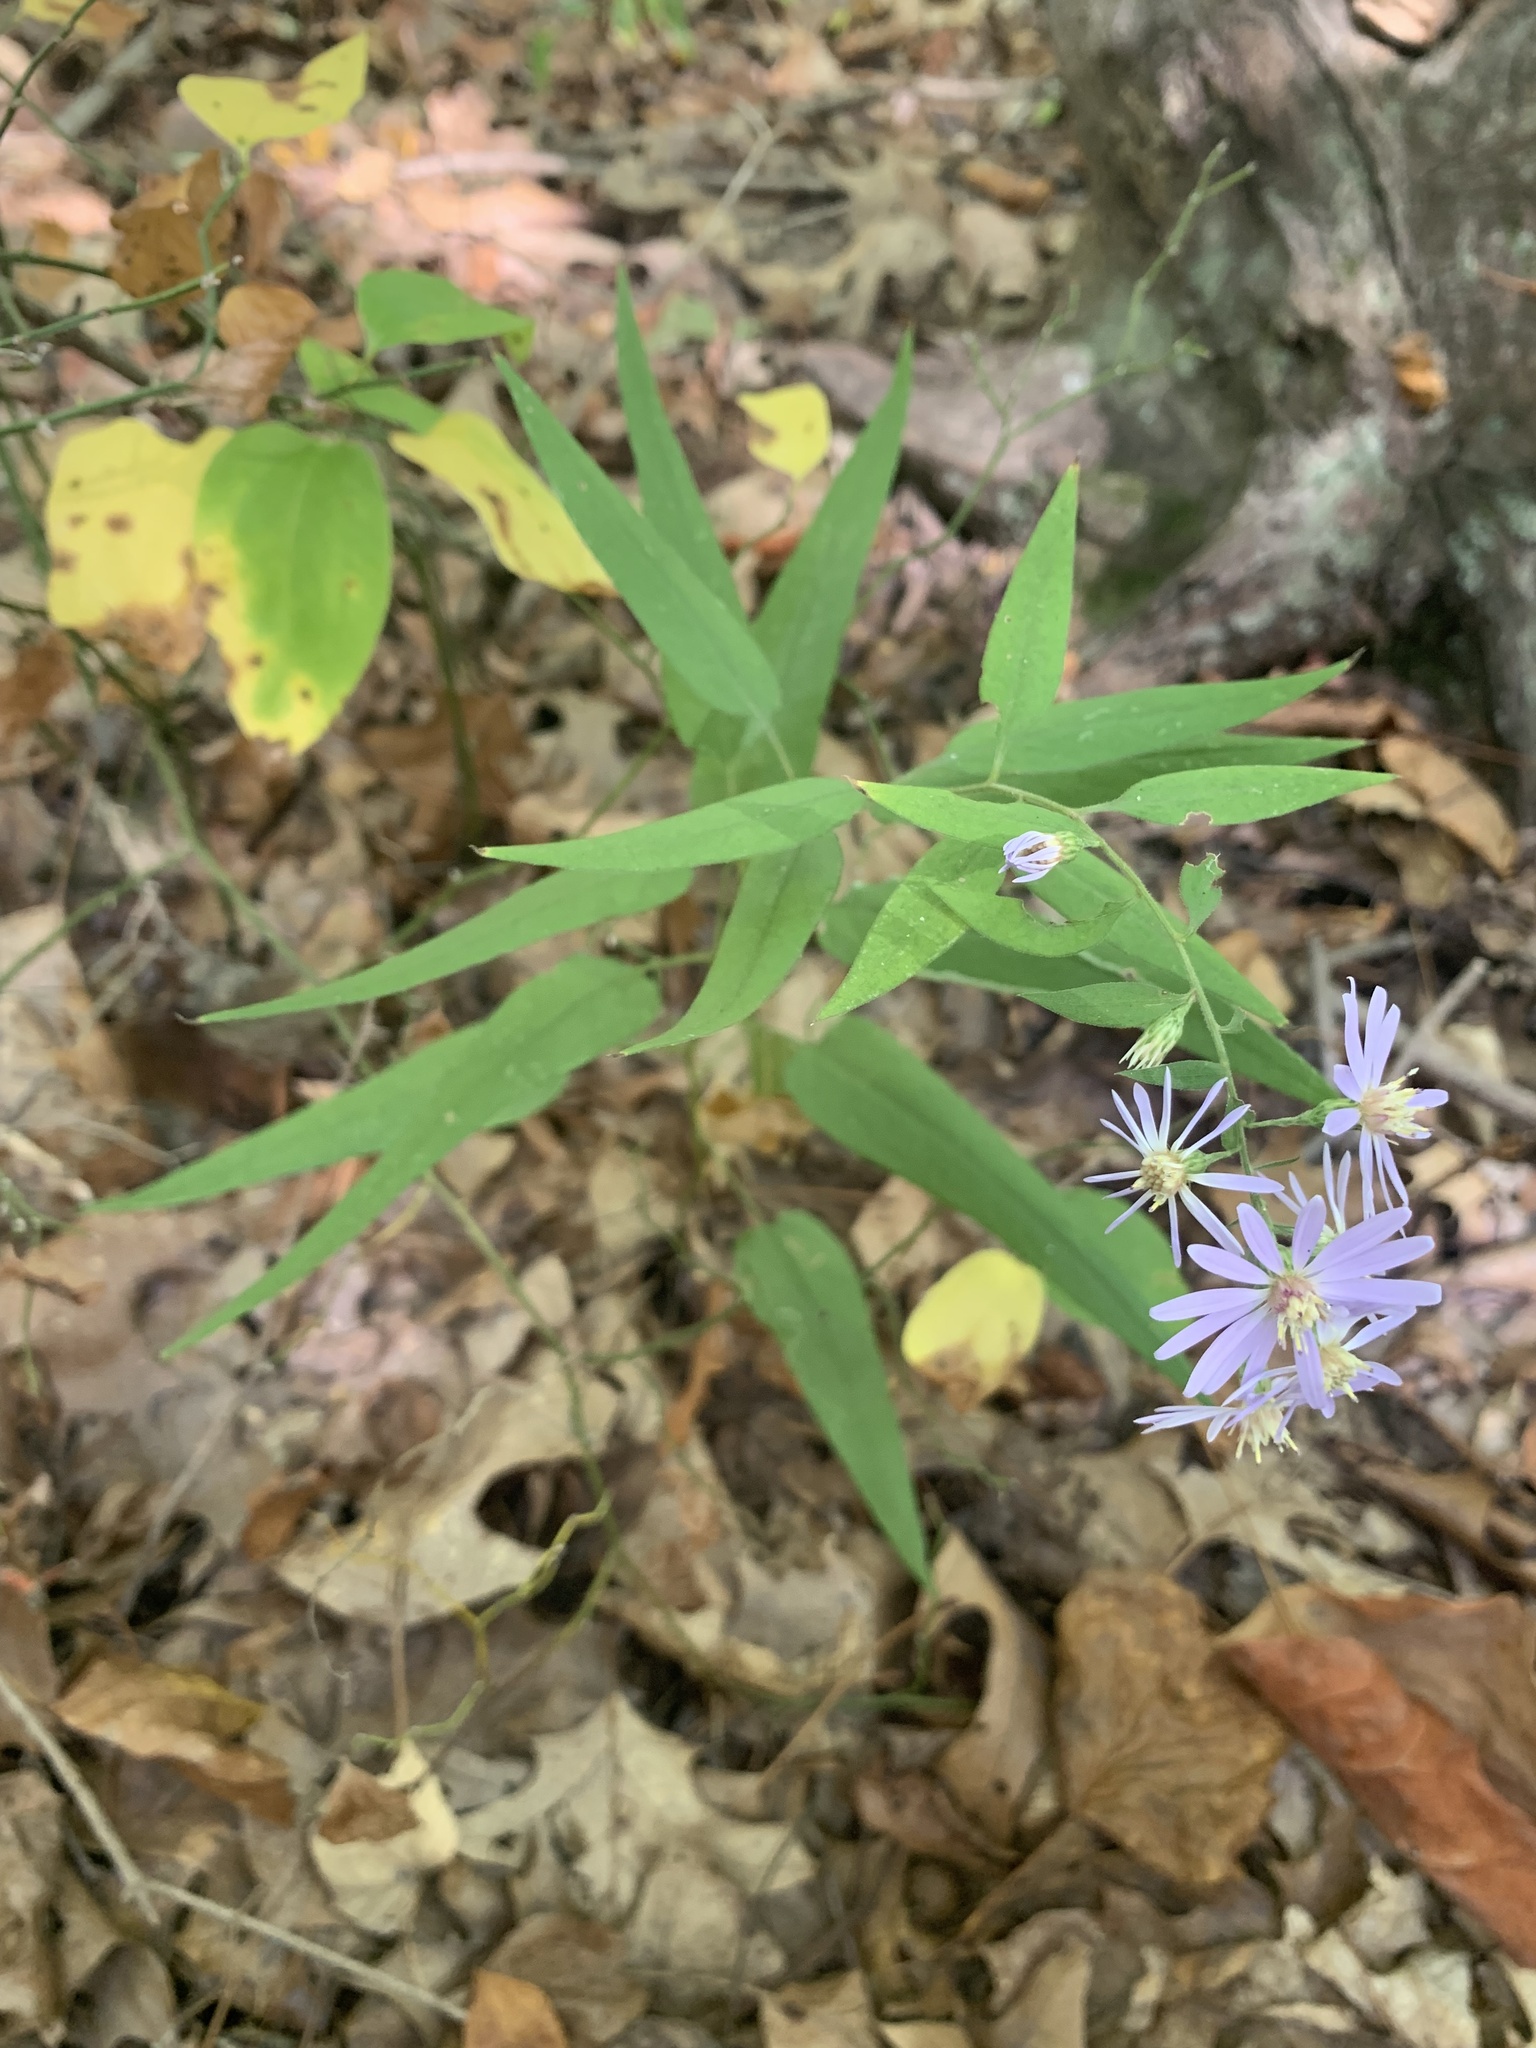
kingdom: Plantae
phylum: Tracheophyta
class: Magnoliopsida
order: Asterales
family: Asteraceae
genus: Symphyotrichum
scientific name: Symphyotrichum shortii
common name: Short's aster
